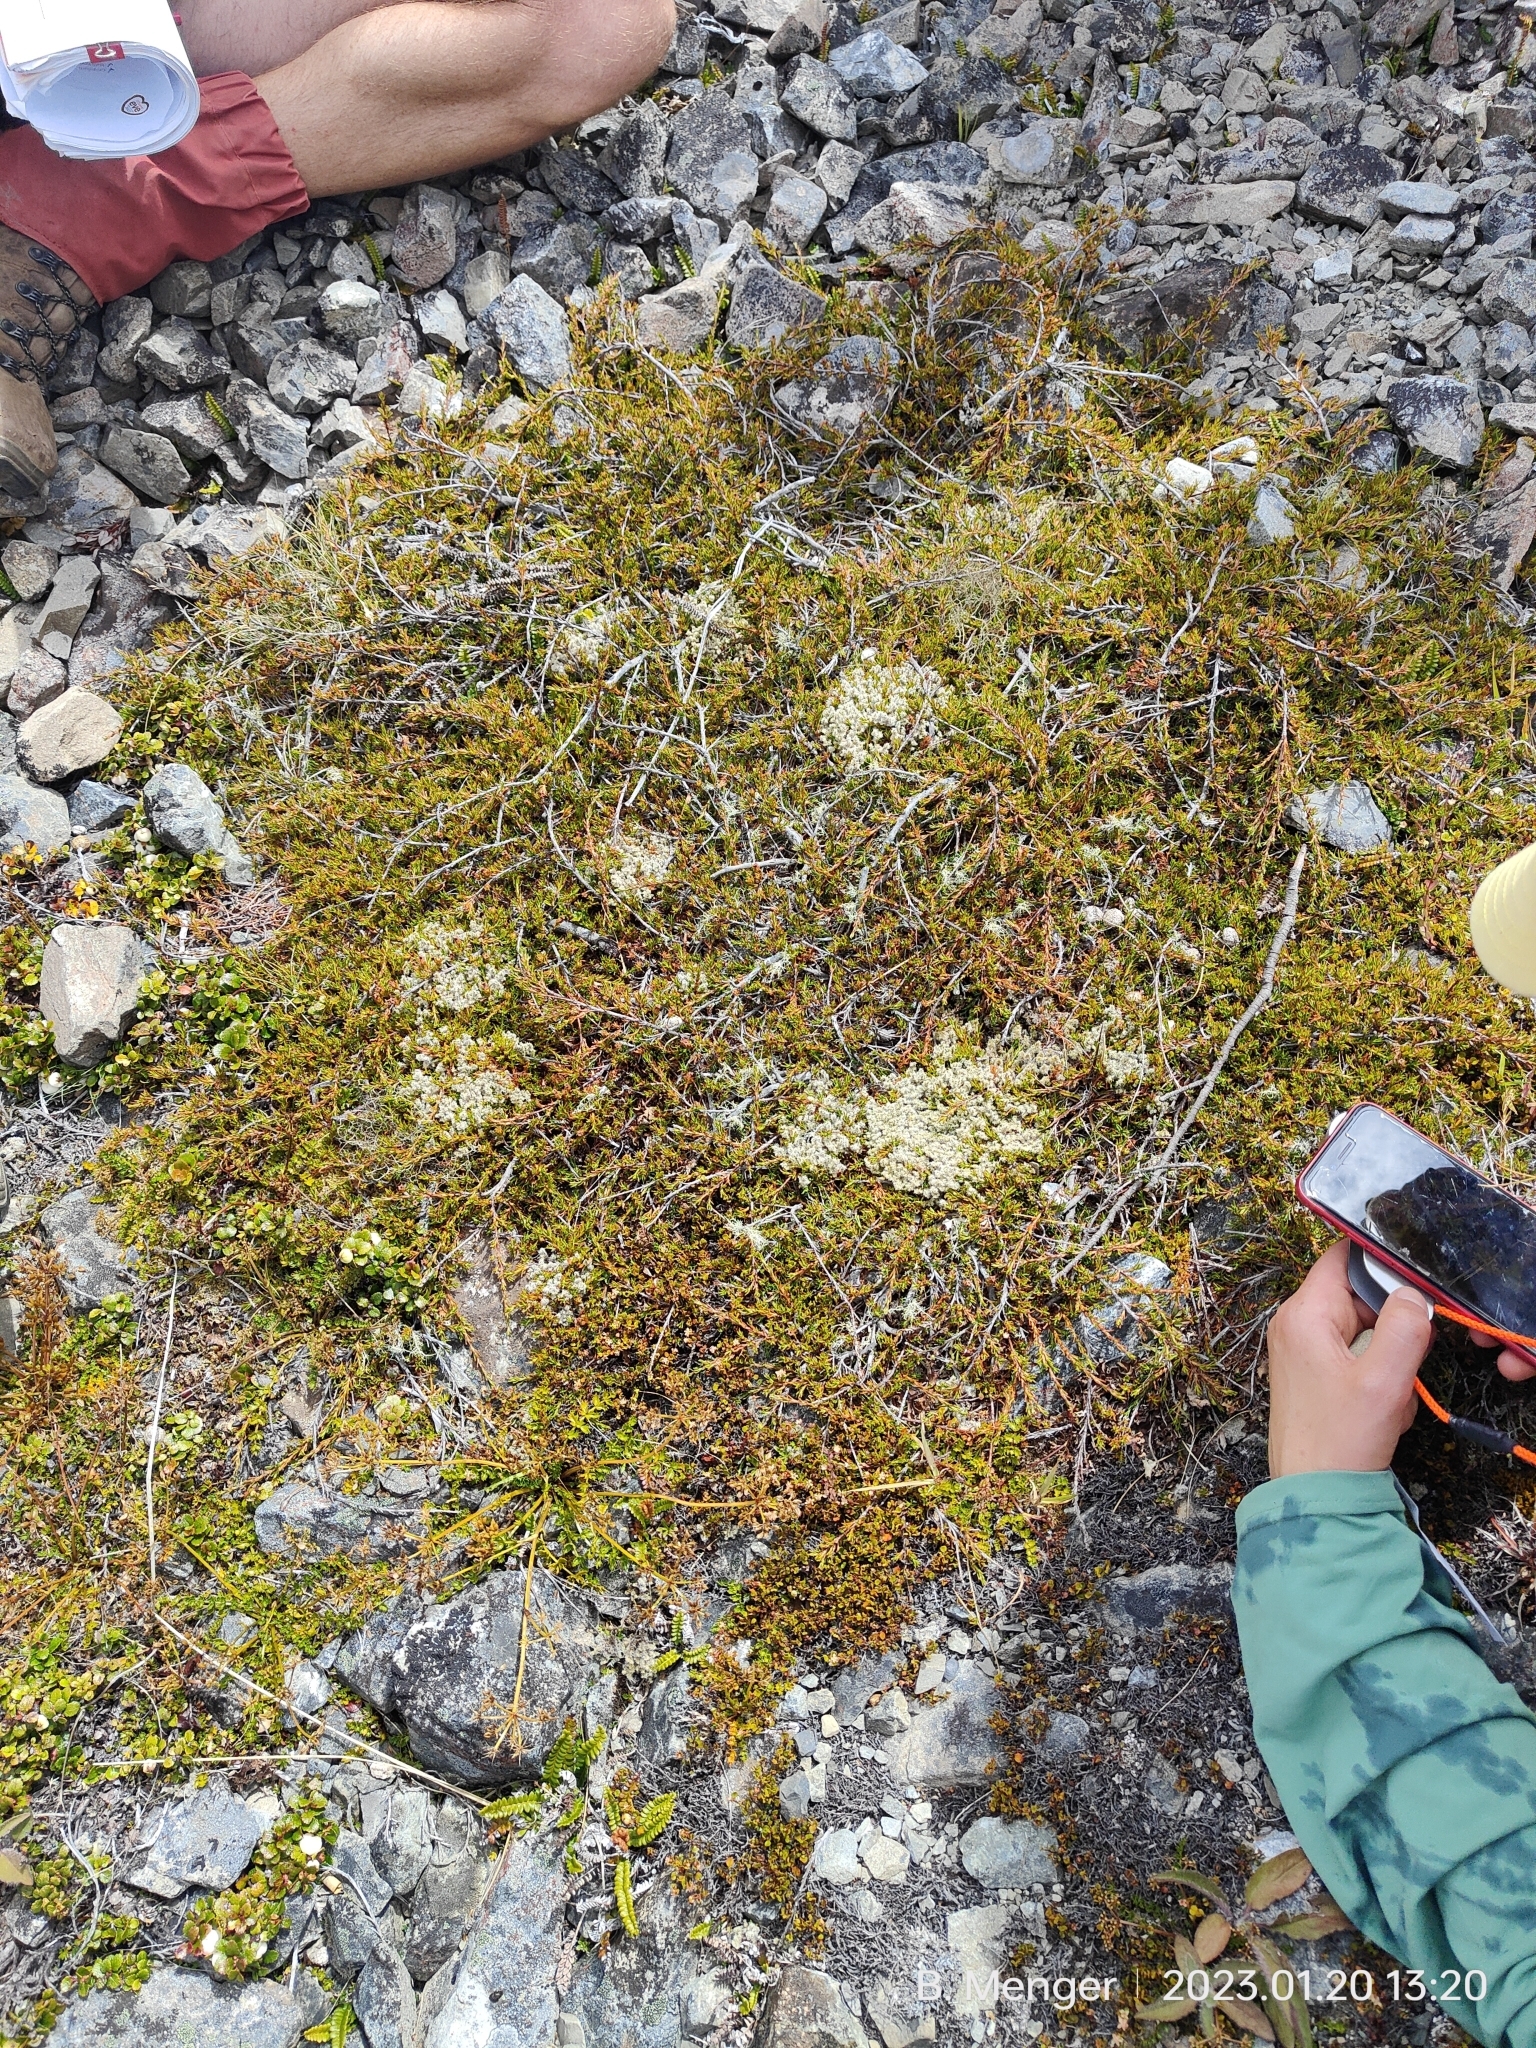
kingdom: Plantae
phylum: Tracheophyta
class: Magnoliopsida
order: Ericales
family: Ericaceae
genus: Dracophyllum
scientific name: Dracophyllum pronum
